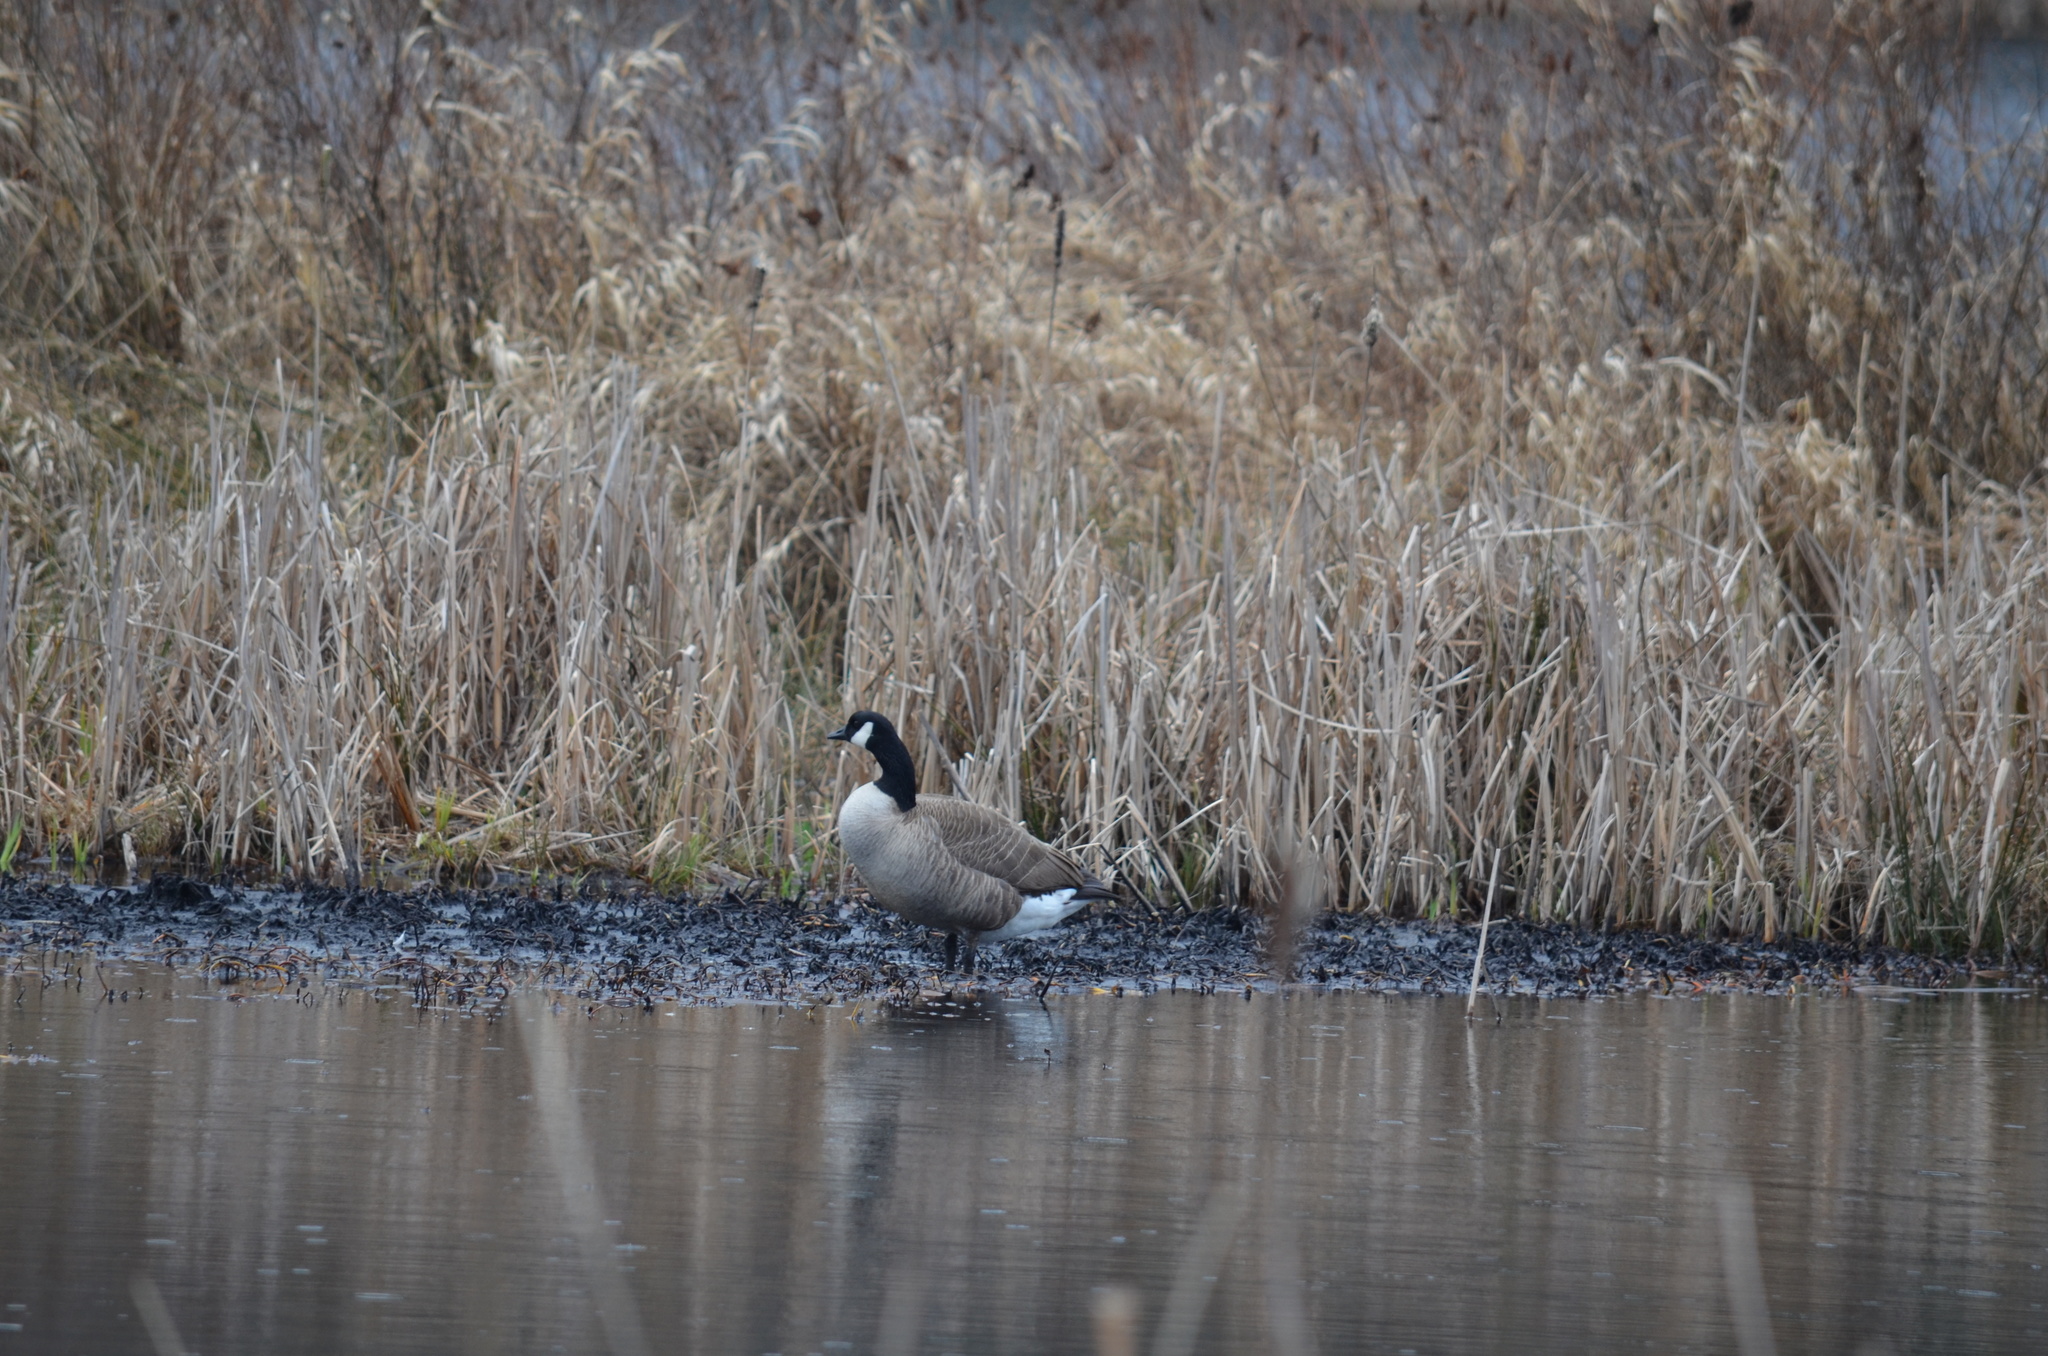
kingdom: Animalia
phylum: Chordata
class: Aves
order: Anseriformes
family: Anatidae
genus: Branta
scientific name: Branta canadensis
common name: Canada goose
